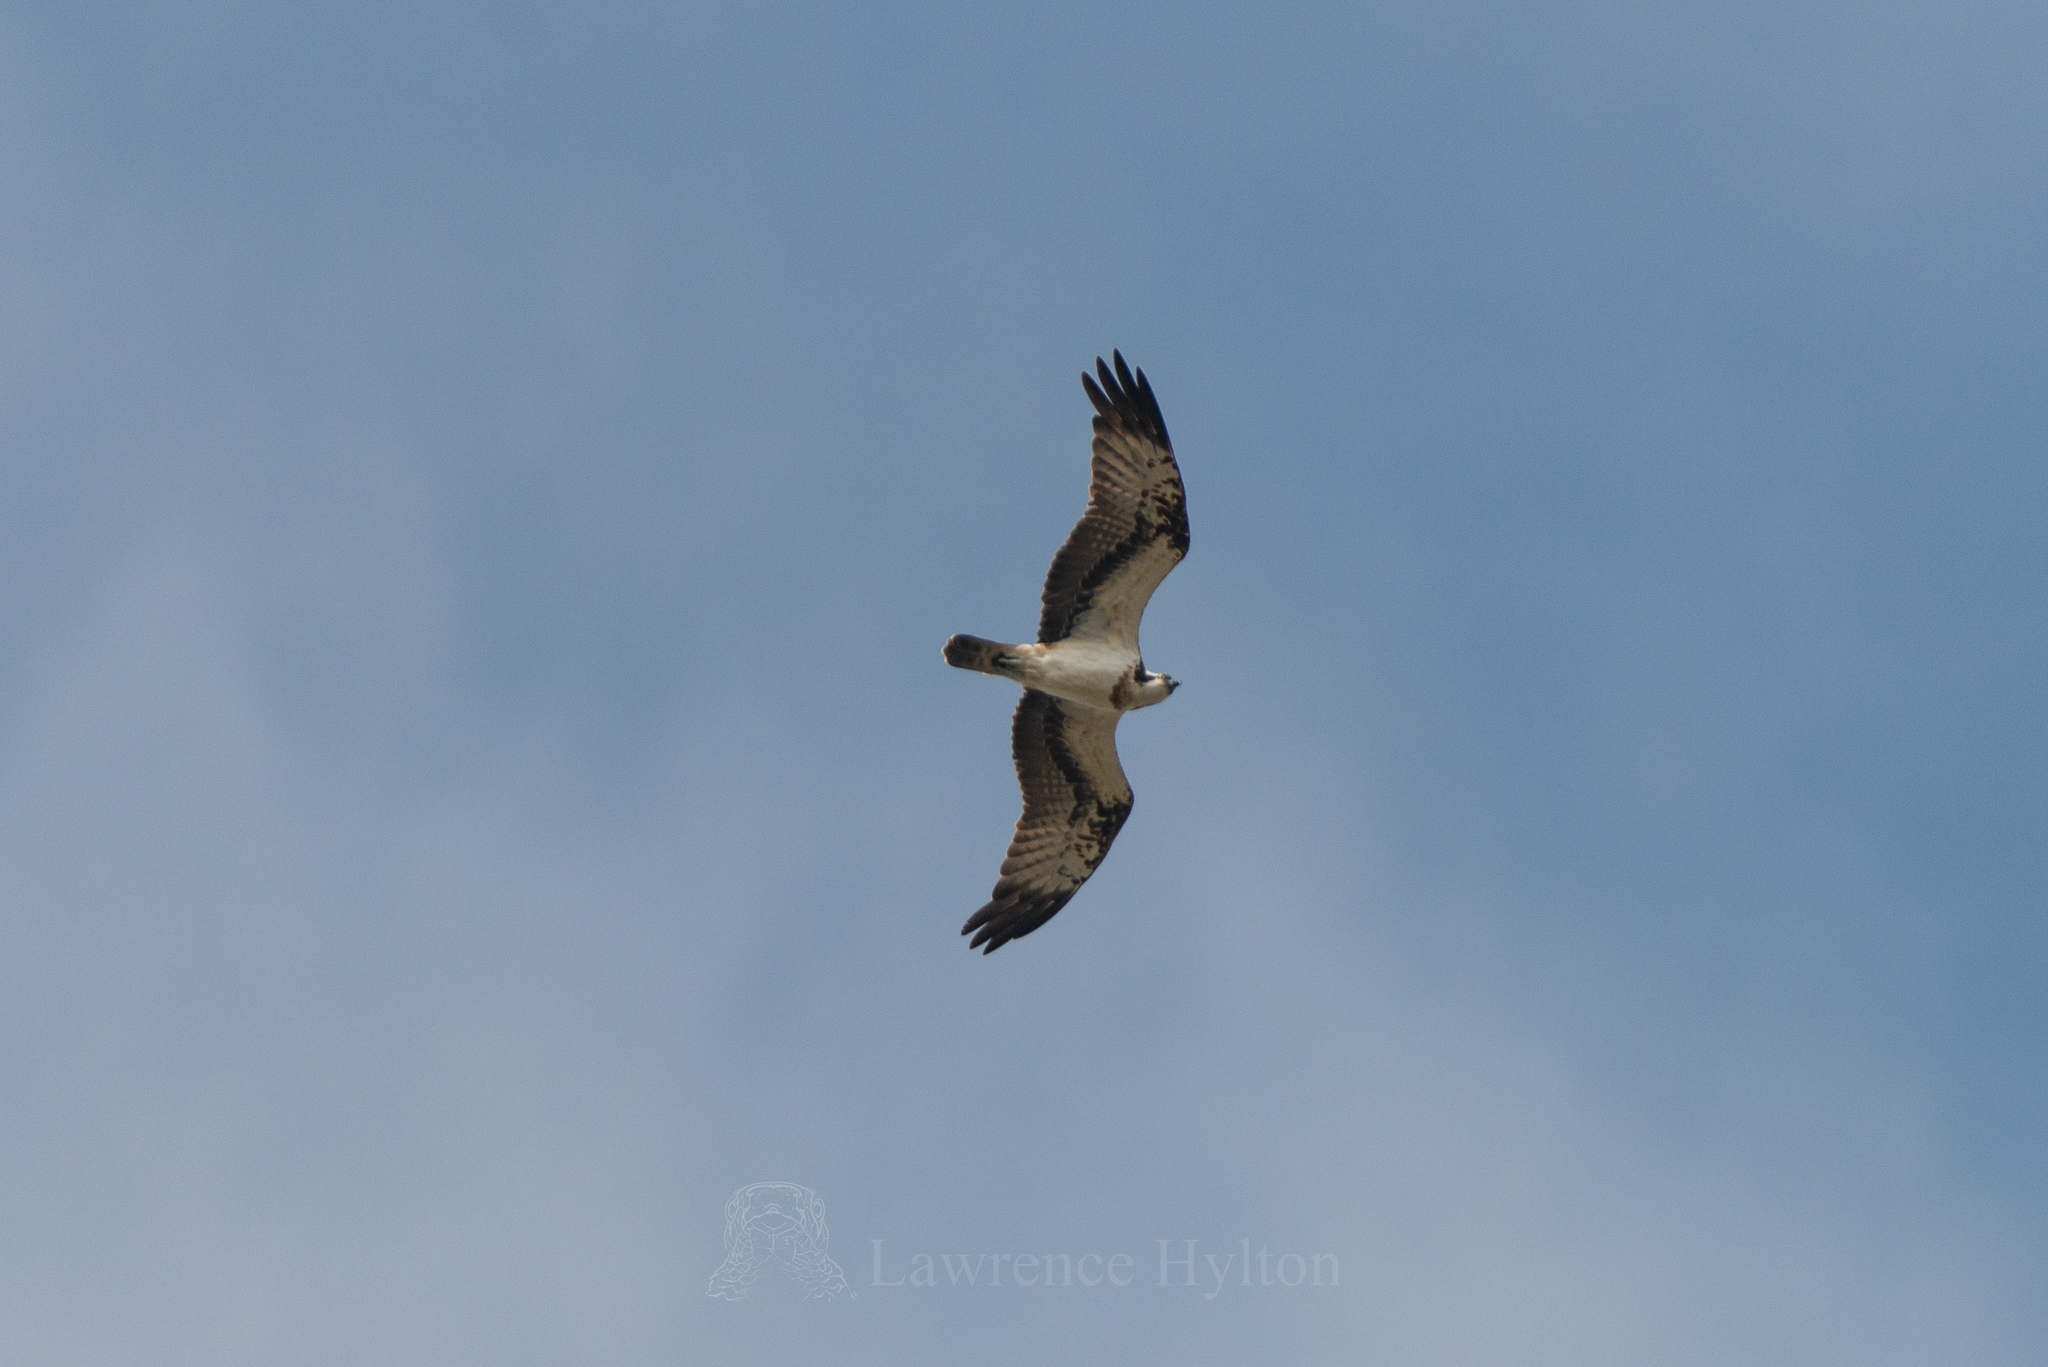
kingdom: Animalia
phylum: Chordata
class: Aves
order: Accipitriformes
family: Pandionidae
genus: Pandion
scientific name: Pandion haliaetus
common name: Osprey
